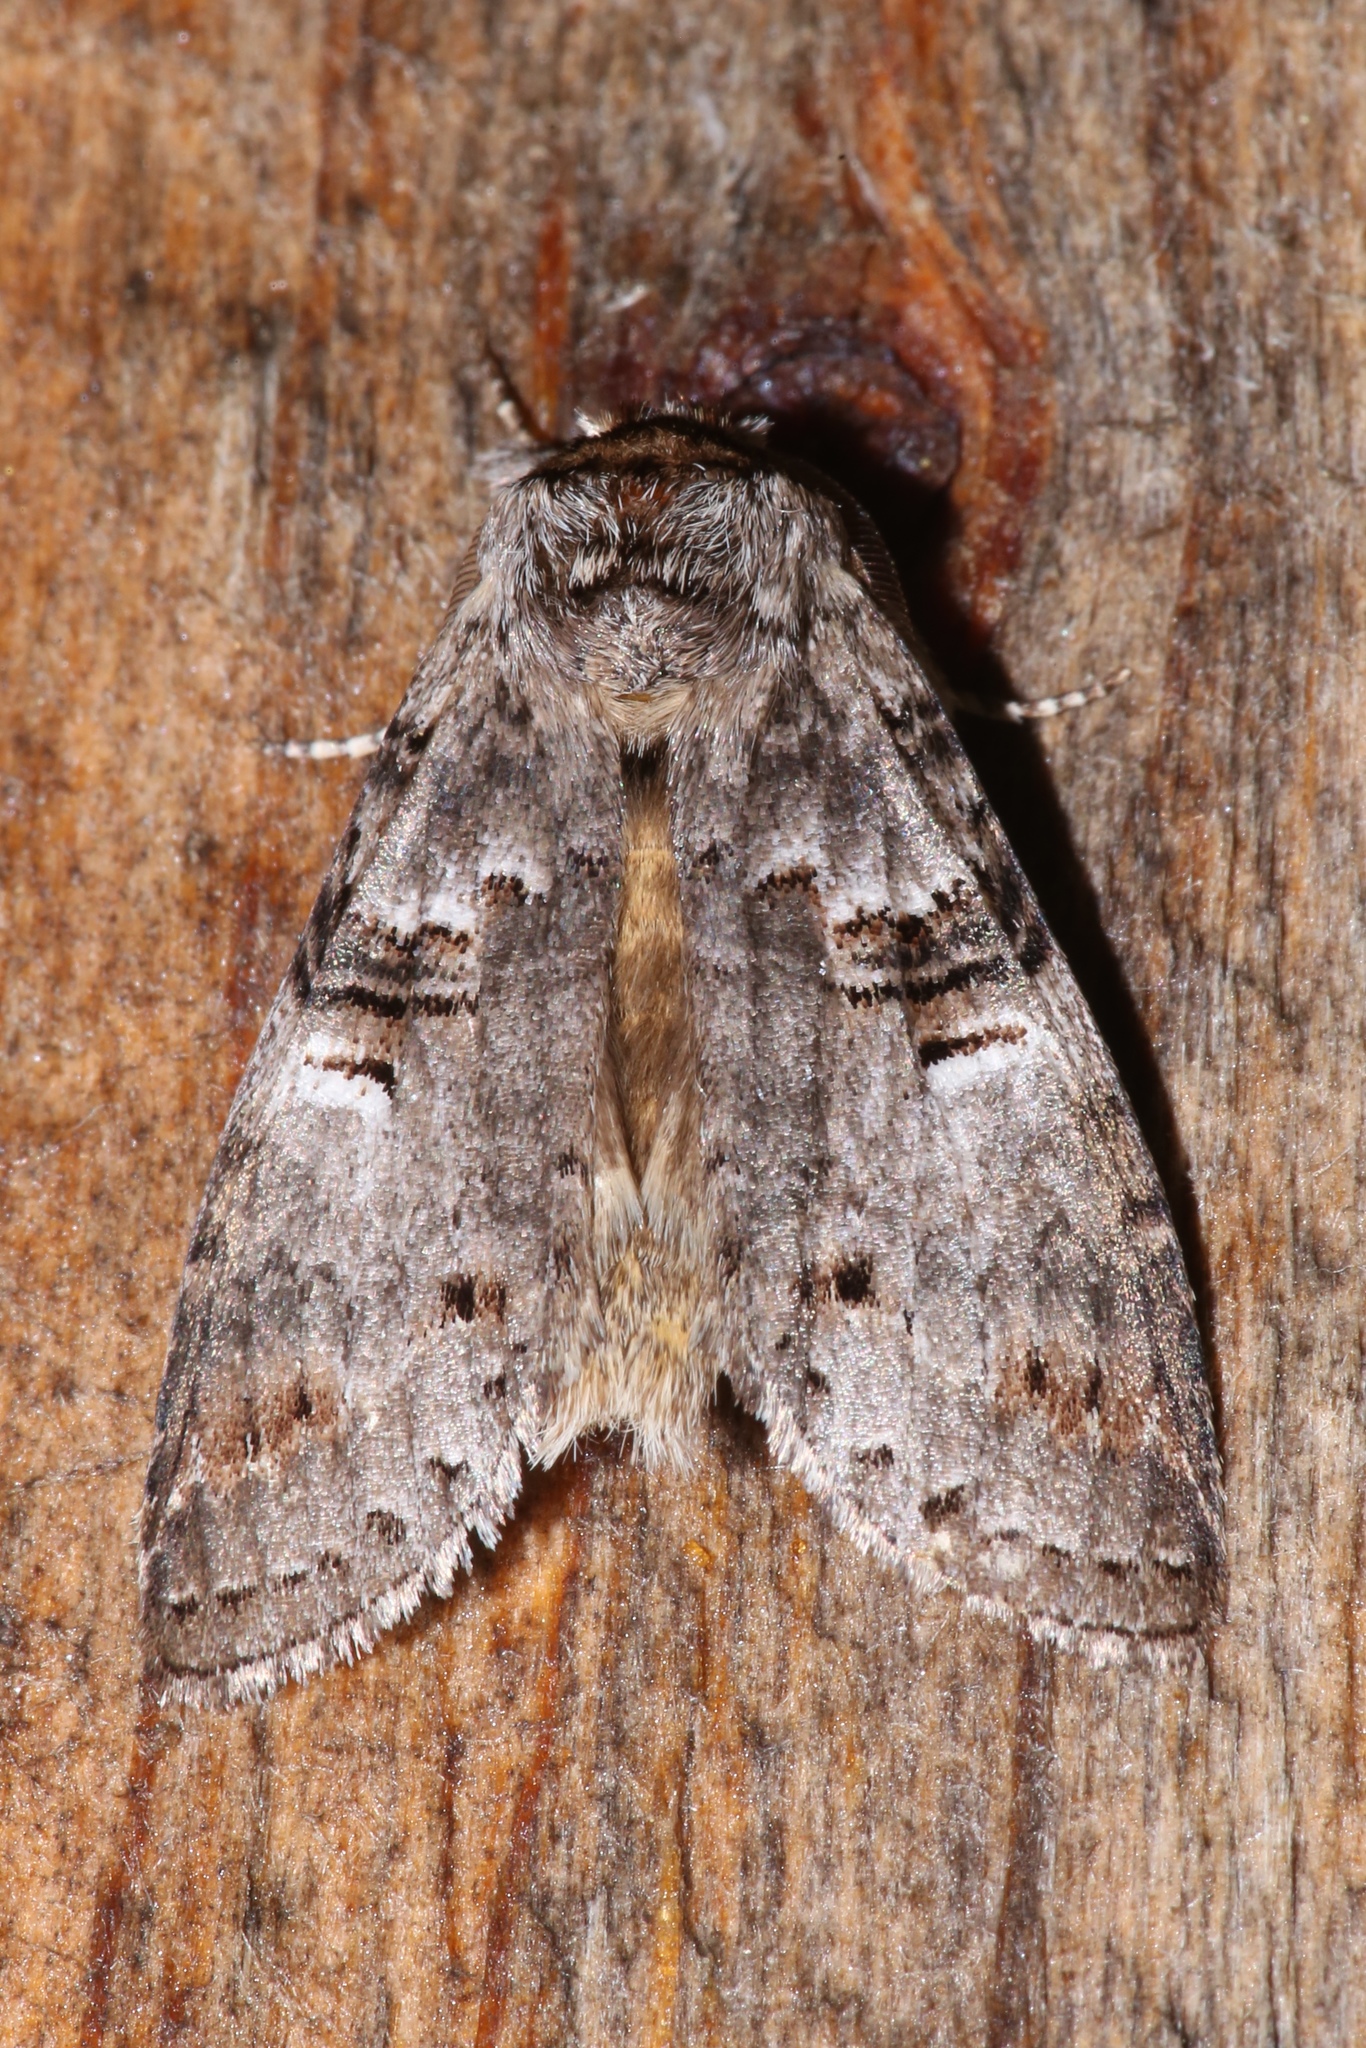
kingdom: Animalia
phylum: Arthropoda
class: Insecta
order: Lepidoptera
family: Notodontidae
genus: Ellida
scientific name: Ellida caniplaga
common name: Linden prominent
